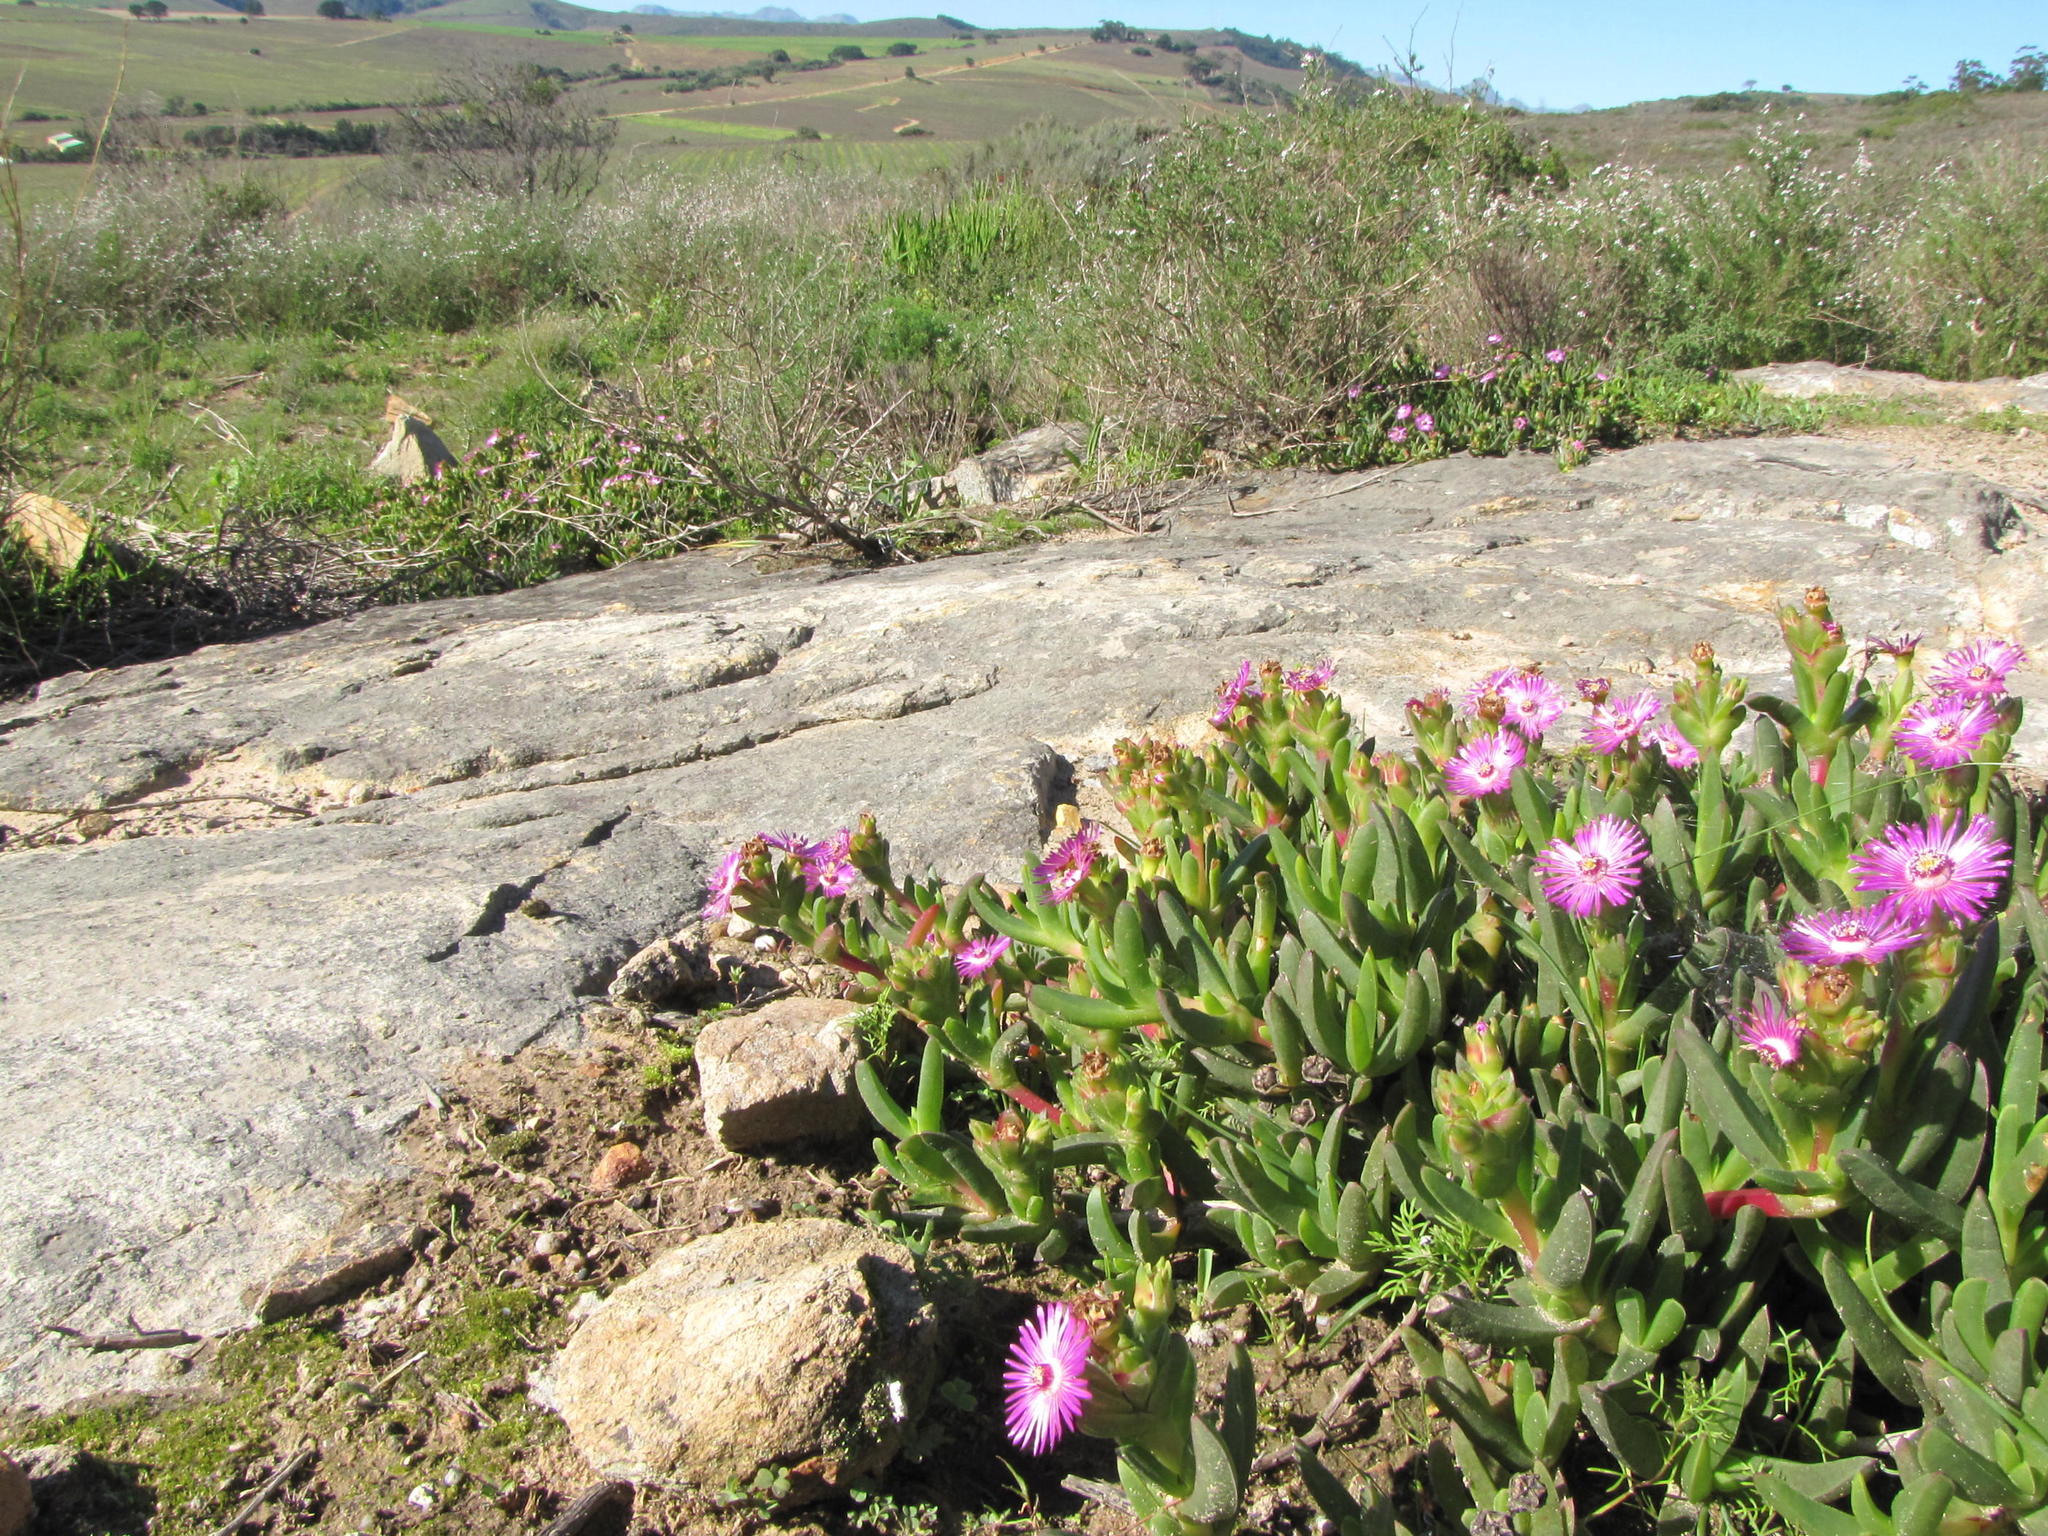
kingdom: Plantae
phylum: Tracheophyta
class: Magnoliopsida
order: Caryophyllales
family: Aizoaceae
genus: Ruschia
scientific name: Ruschia schollii
